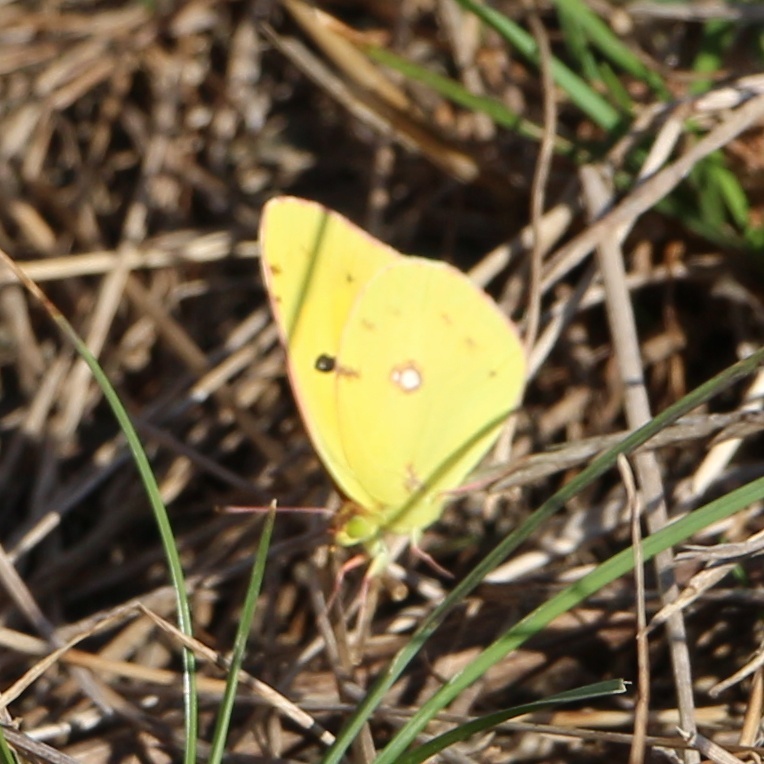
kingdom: Animalia
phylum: Arthropoda
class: Insecta
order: Lepidoptera
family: Pieridae
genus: Colias
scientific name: Colias croceus
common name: Clouded yellow
